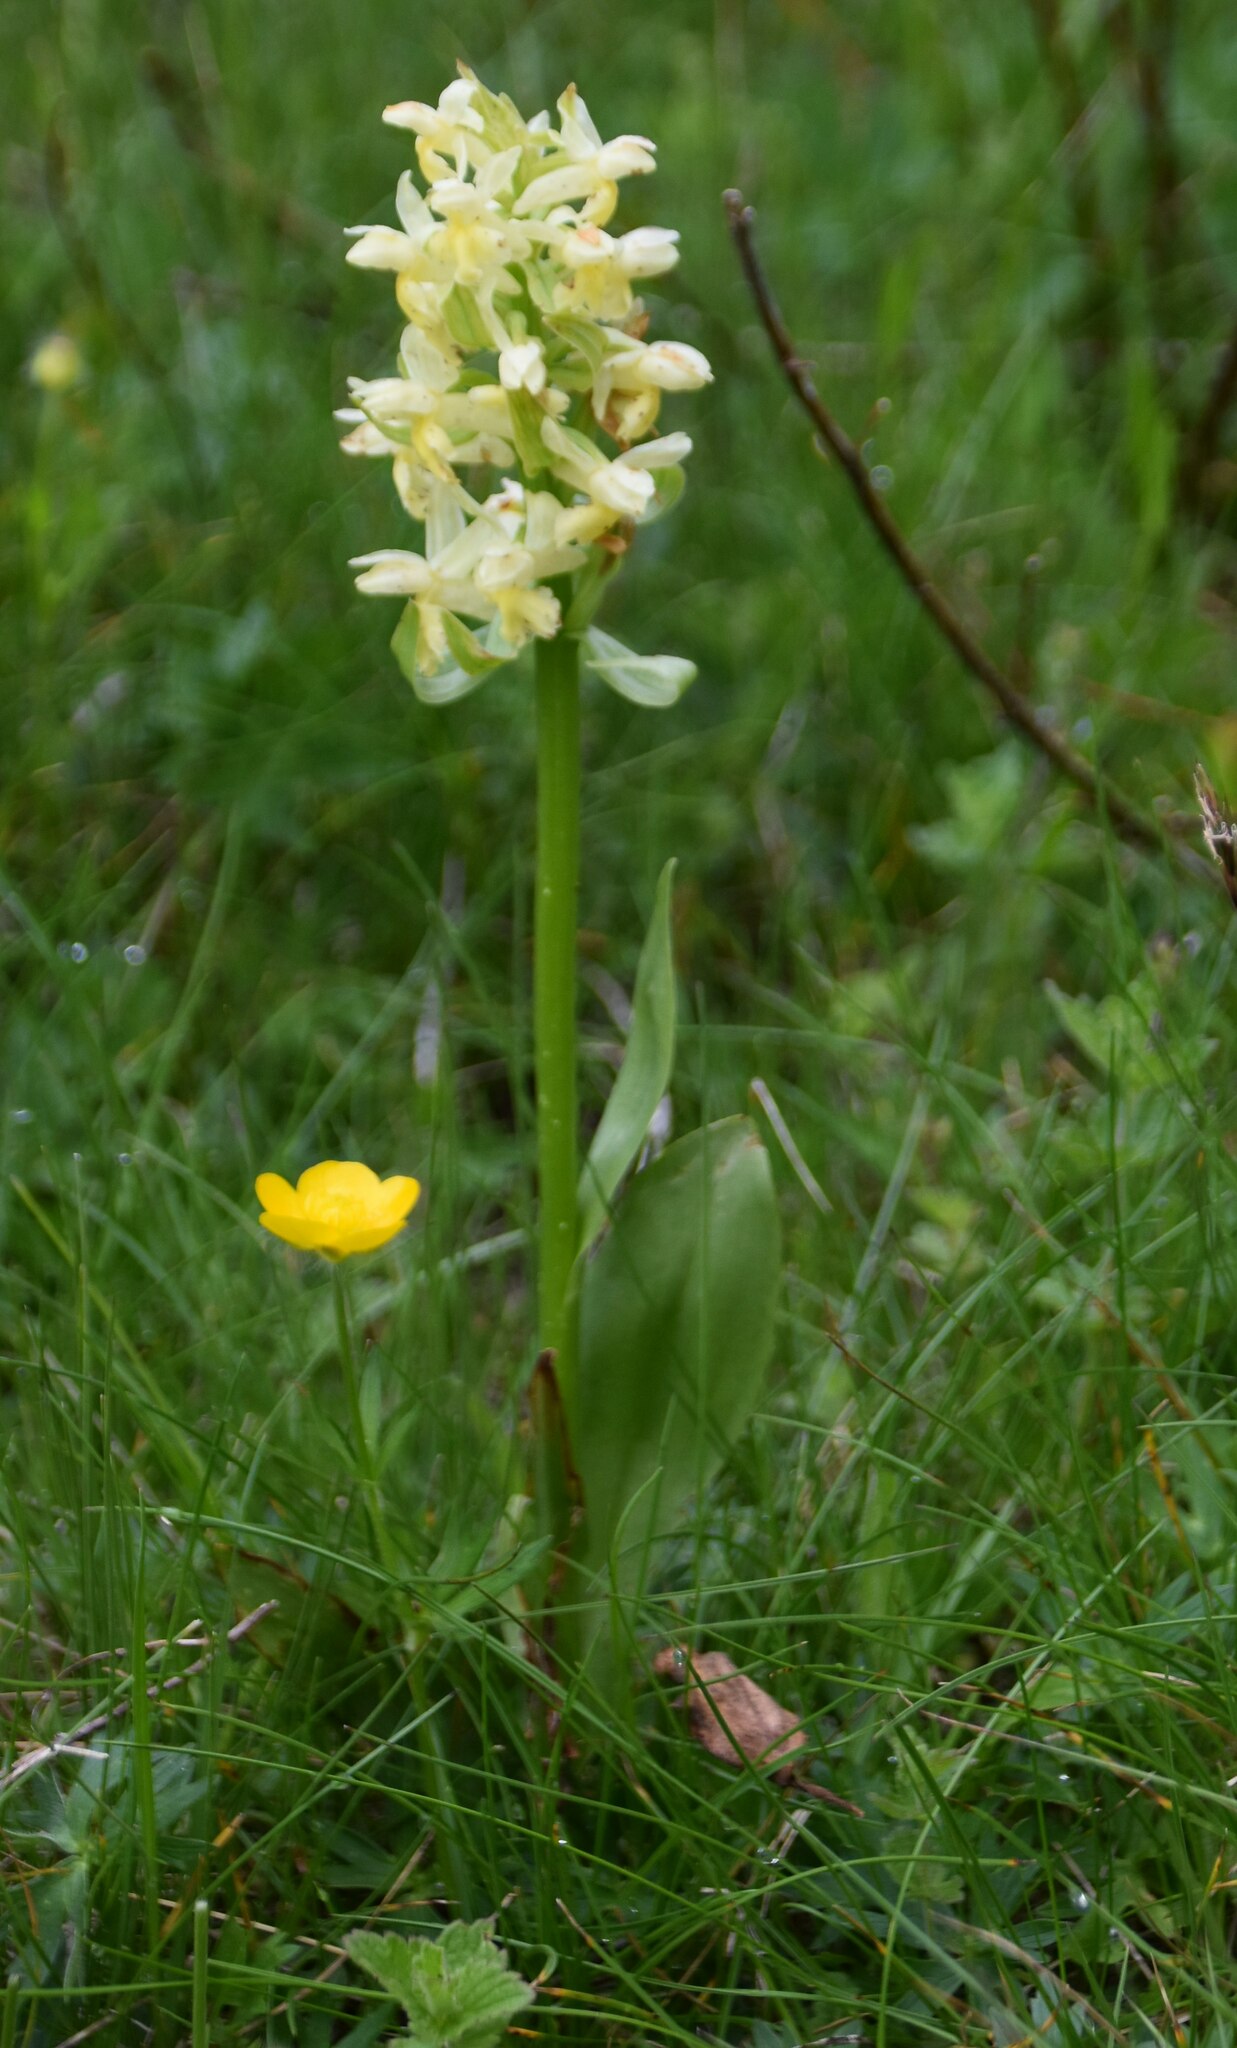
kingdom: Plantae
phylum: Tracheophyta
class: Liliopsida
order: Asparagales
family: Orchidaceae
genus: Dactylorhiza
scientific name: Dactylorhiza sambucina
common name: Elder-flowered orchid
